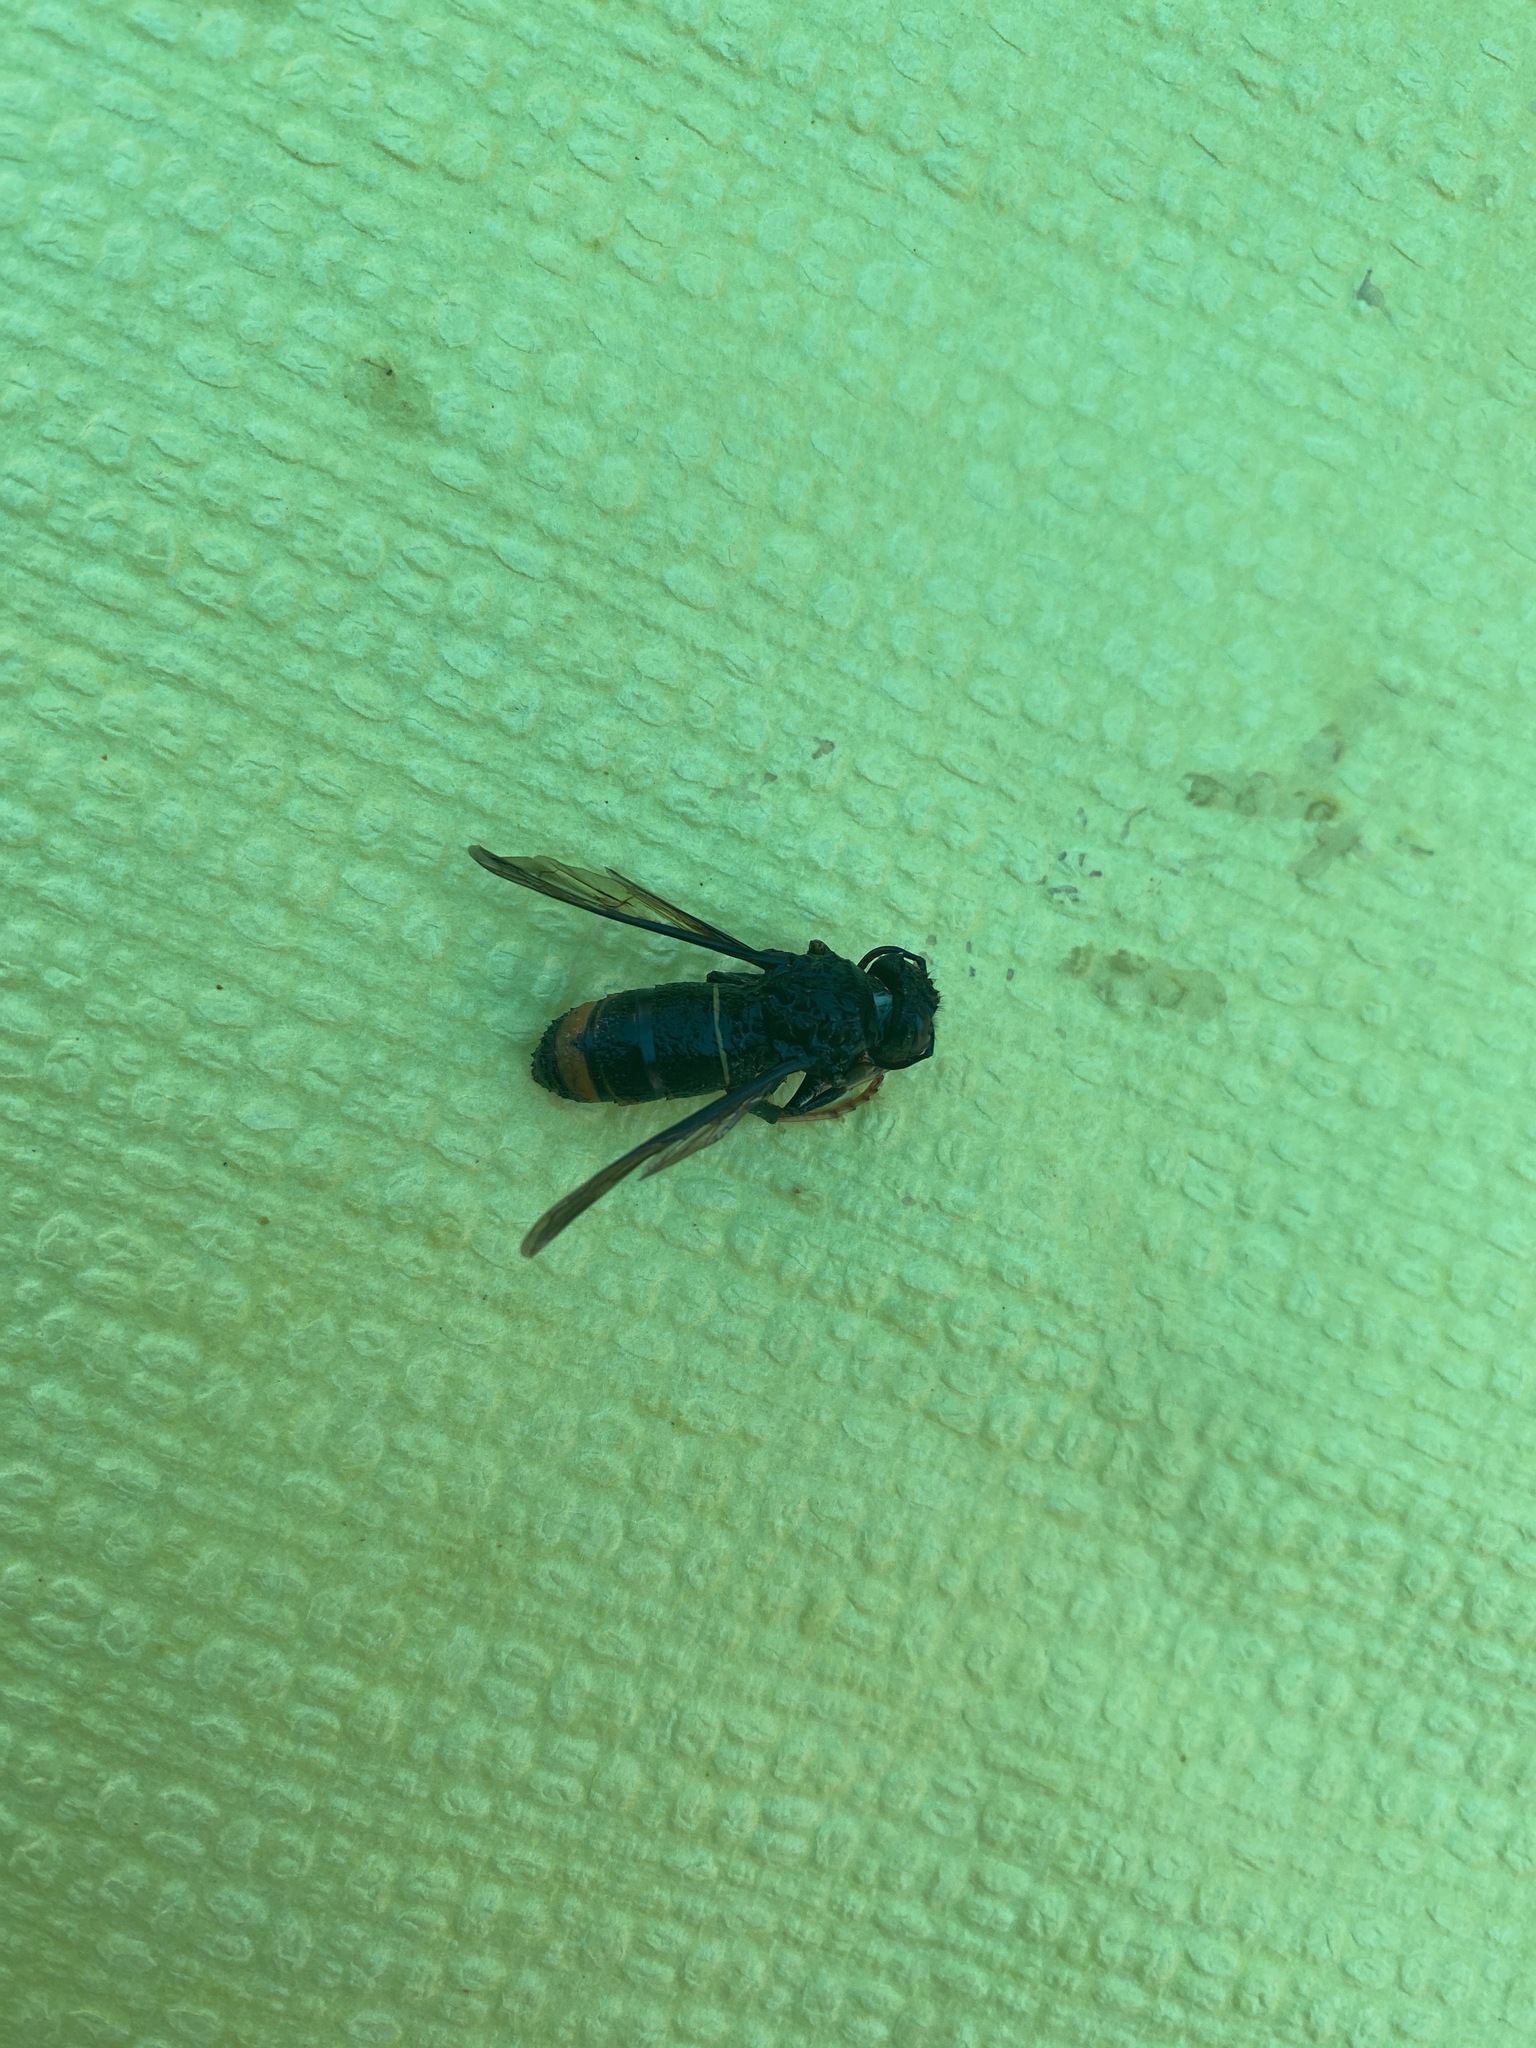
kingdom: Animalia
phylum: Arthropoda
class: Insecta
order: Hymenoptera
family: Vespidae
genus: Vespa
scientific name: Vespa velutina
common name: Asian hornet
